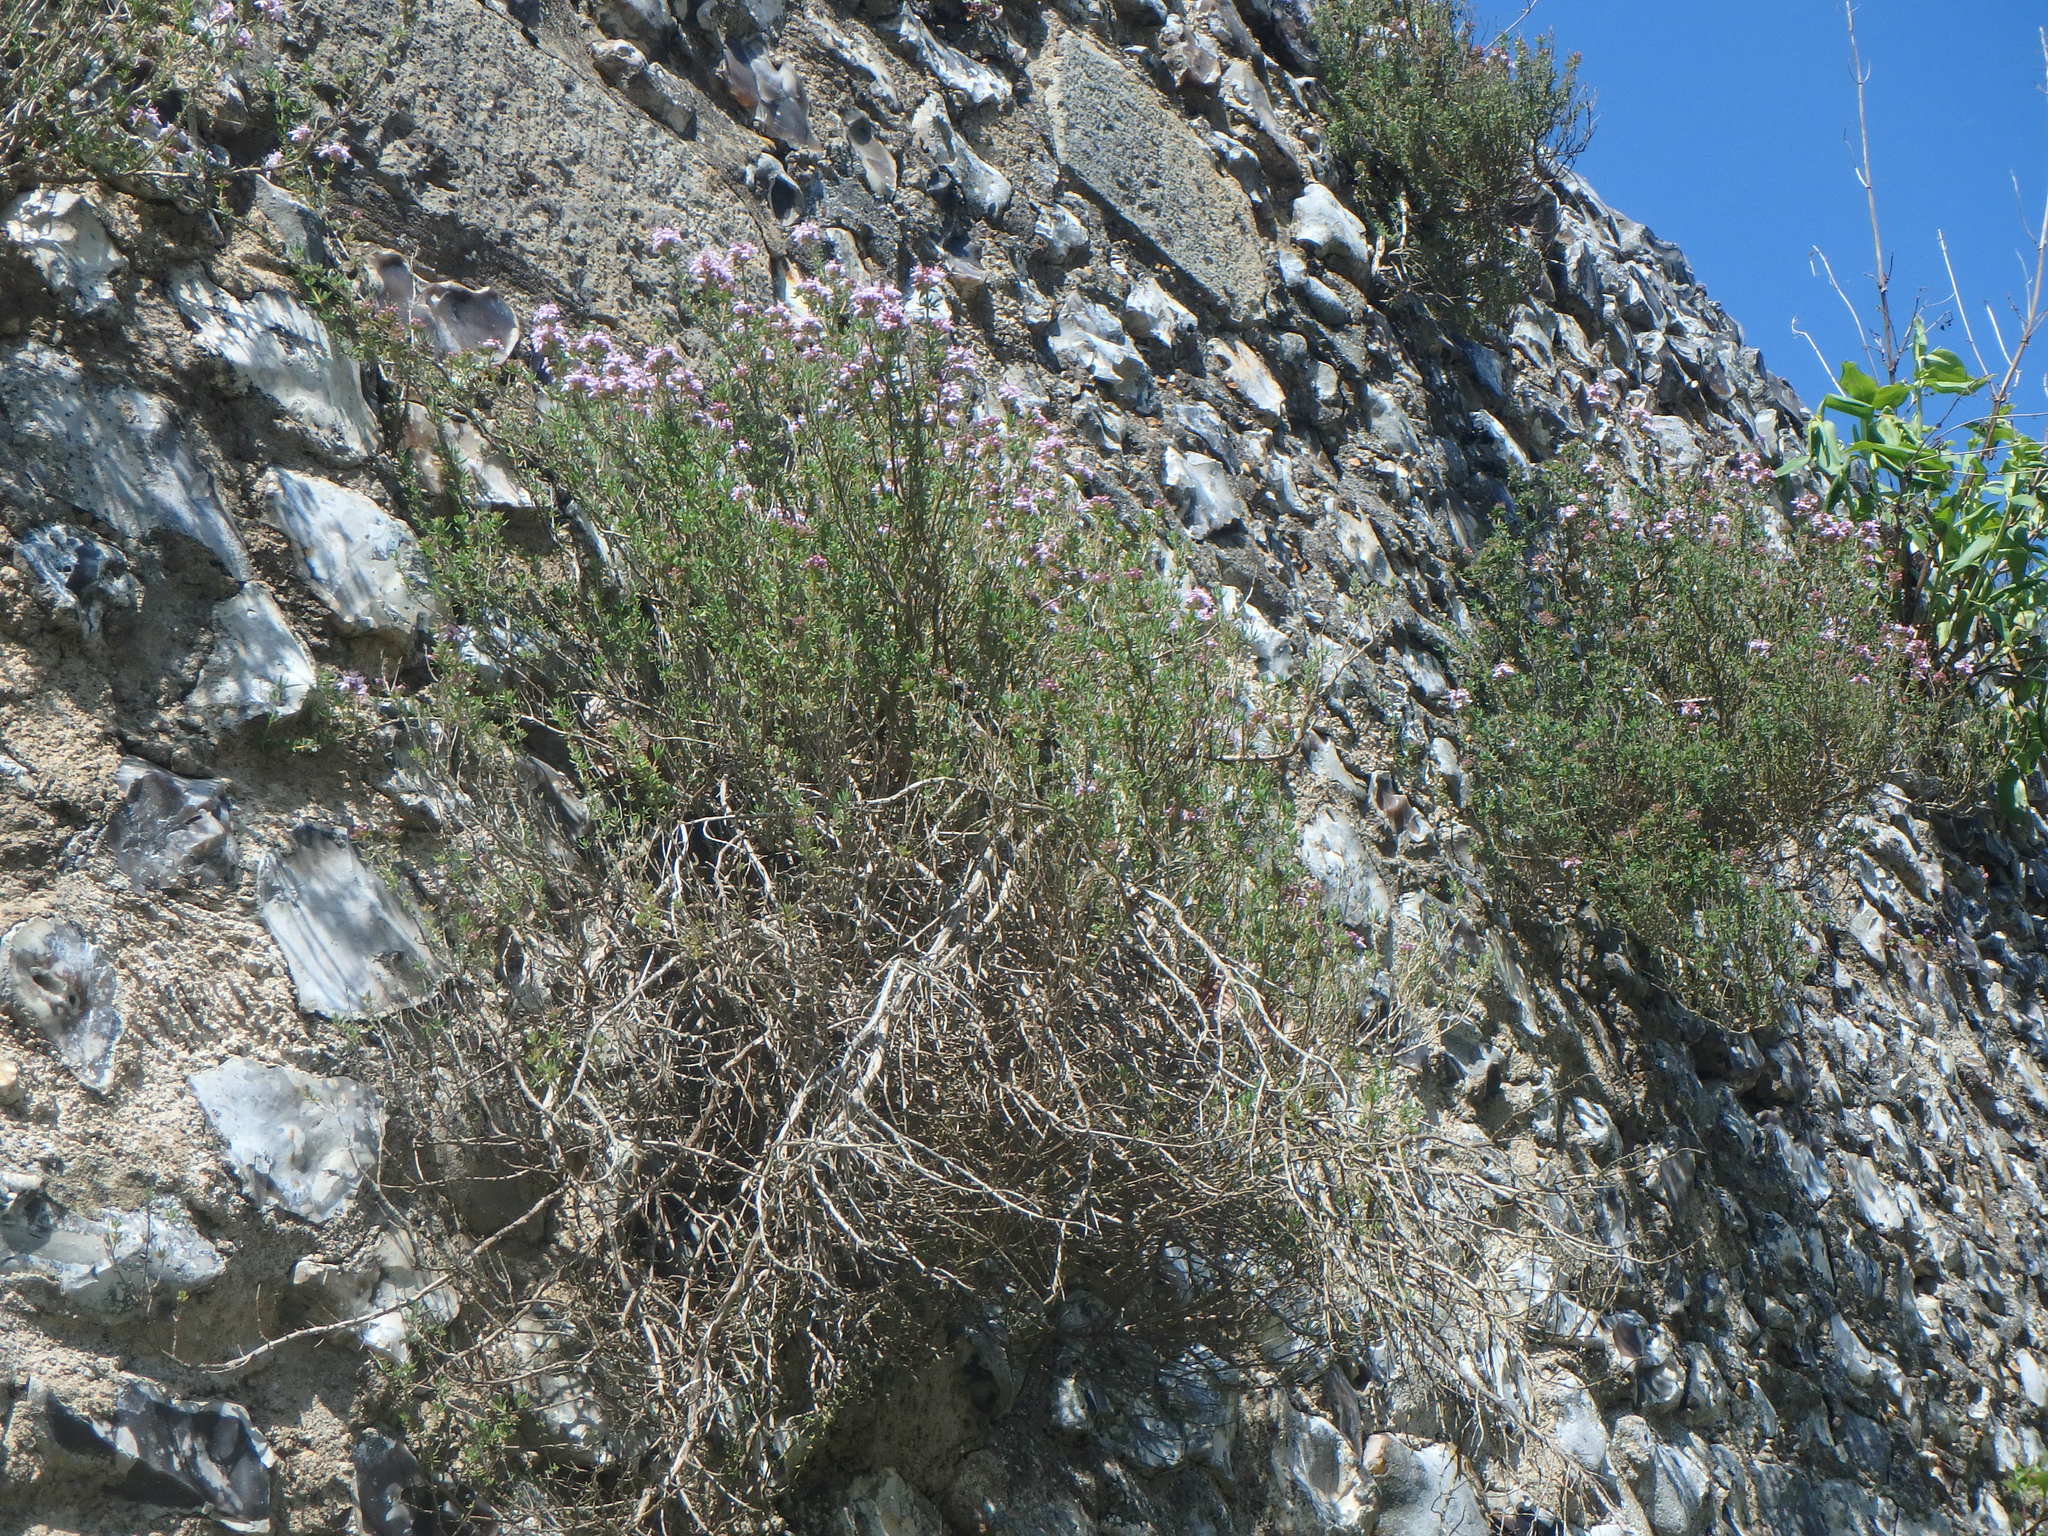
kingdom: Plantae
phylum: Tracheophyta
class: Magnoliopsida
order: Lamiales
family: Lamiaceae
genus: Thymus
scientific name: Thymus vulgaris
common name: Garden thyme
